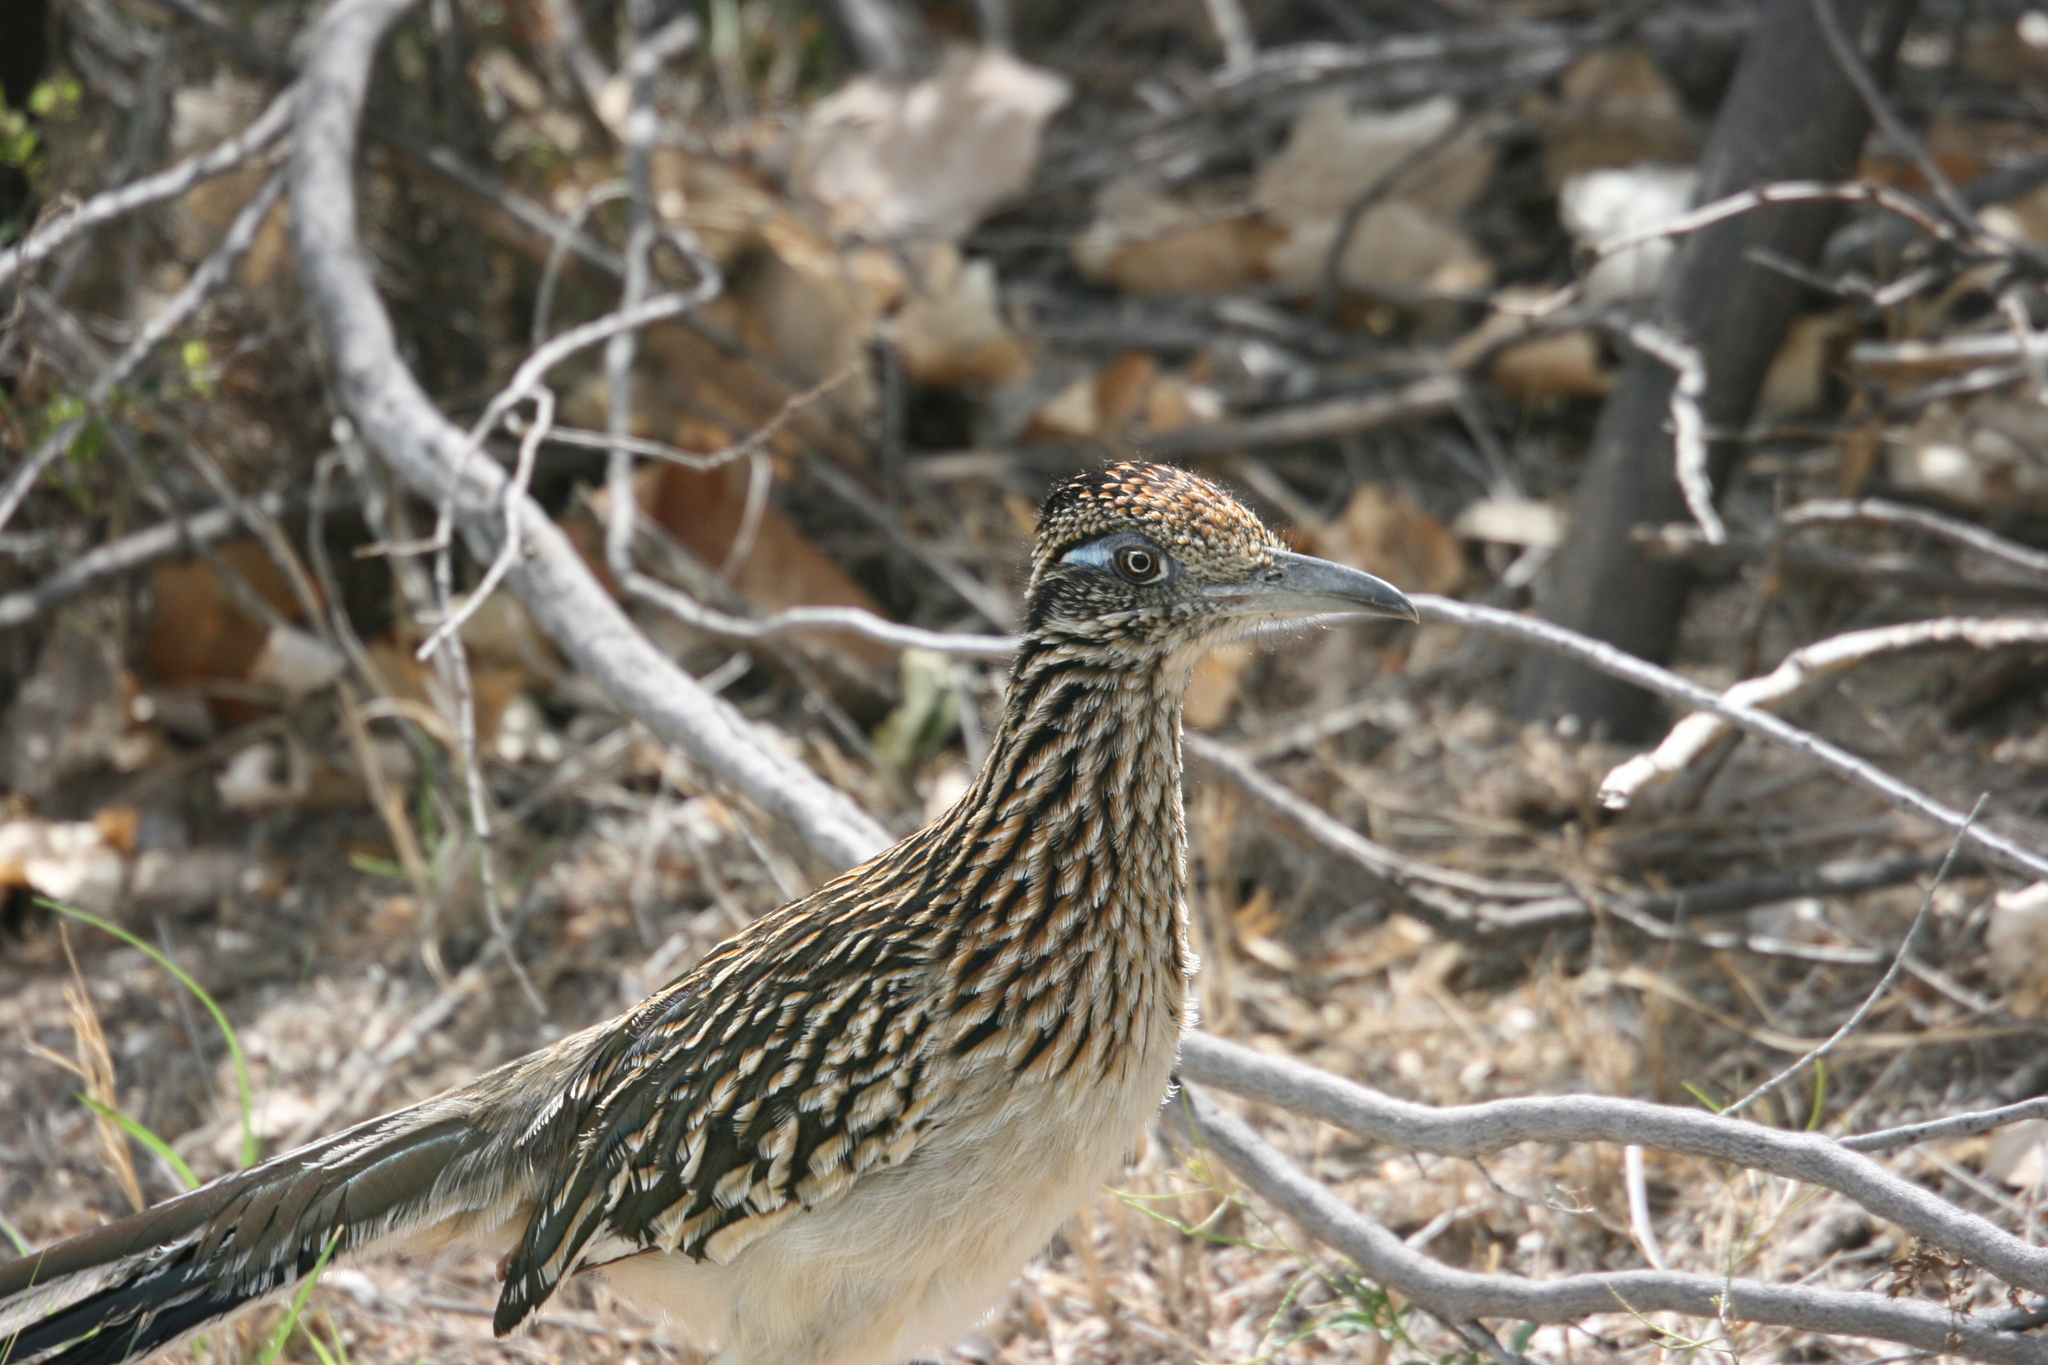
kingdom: Animalia
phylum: Chordata
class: Aves
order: Cuculiformes
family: Cuculidae
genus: Geococcyx
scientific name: Geococcyx californianus
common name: Greater roadrunner
